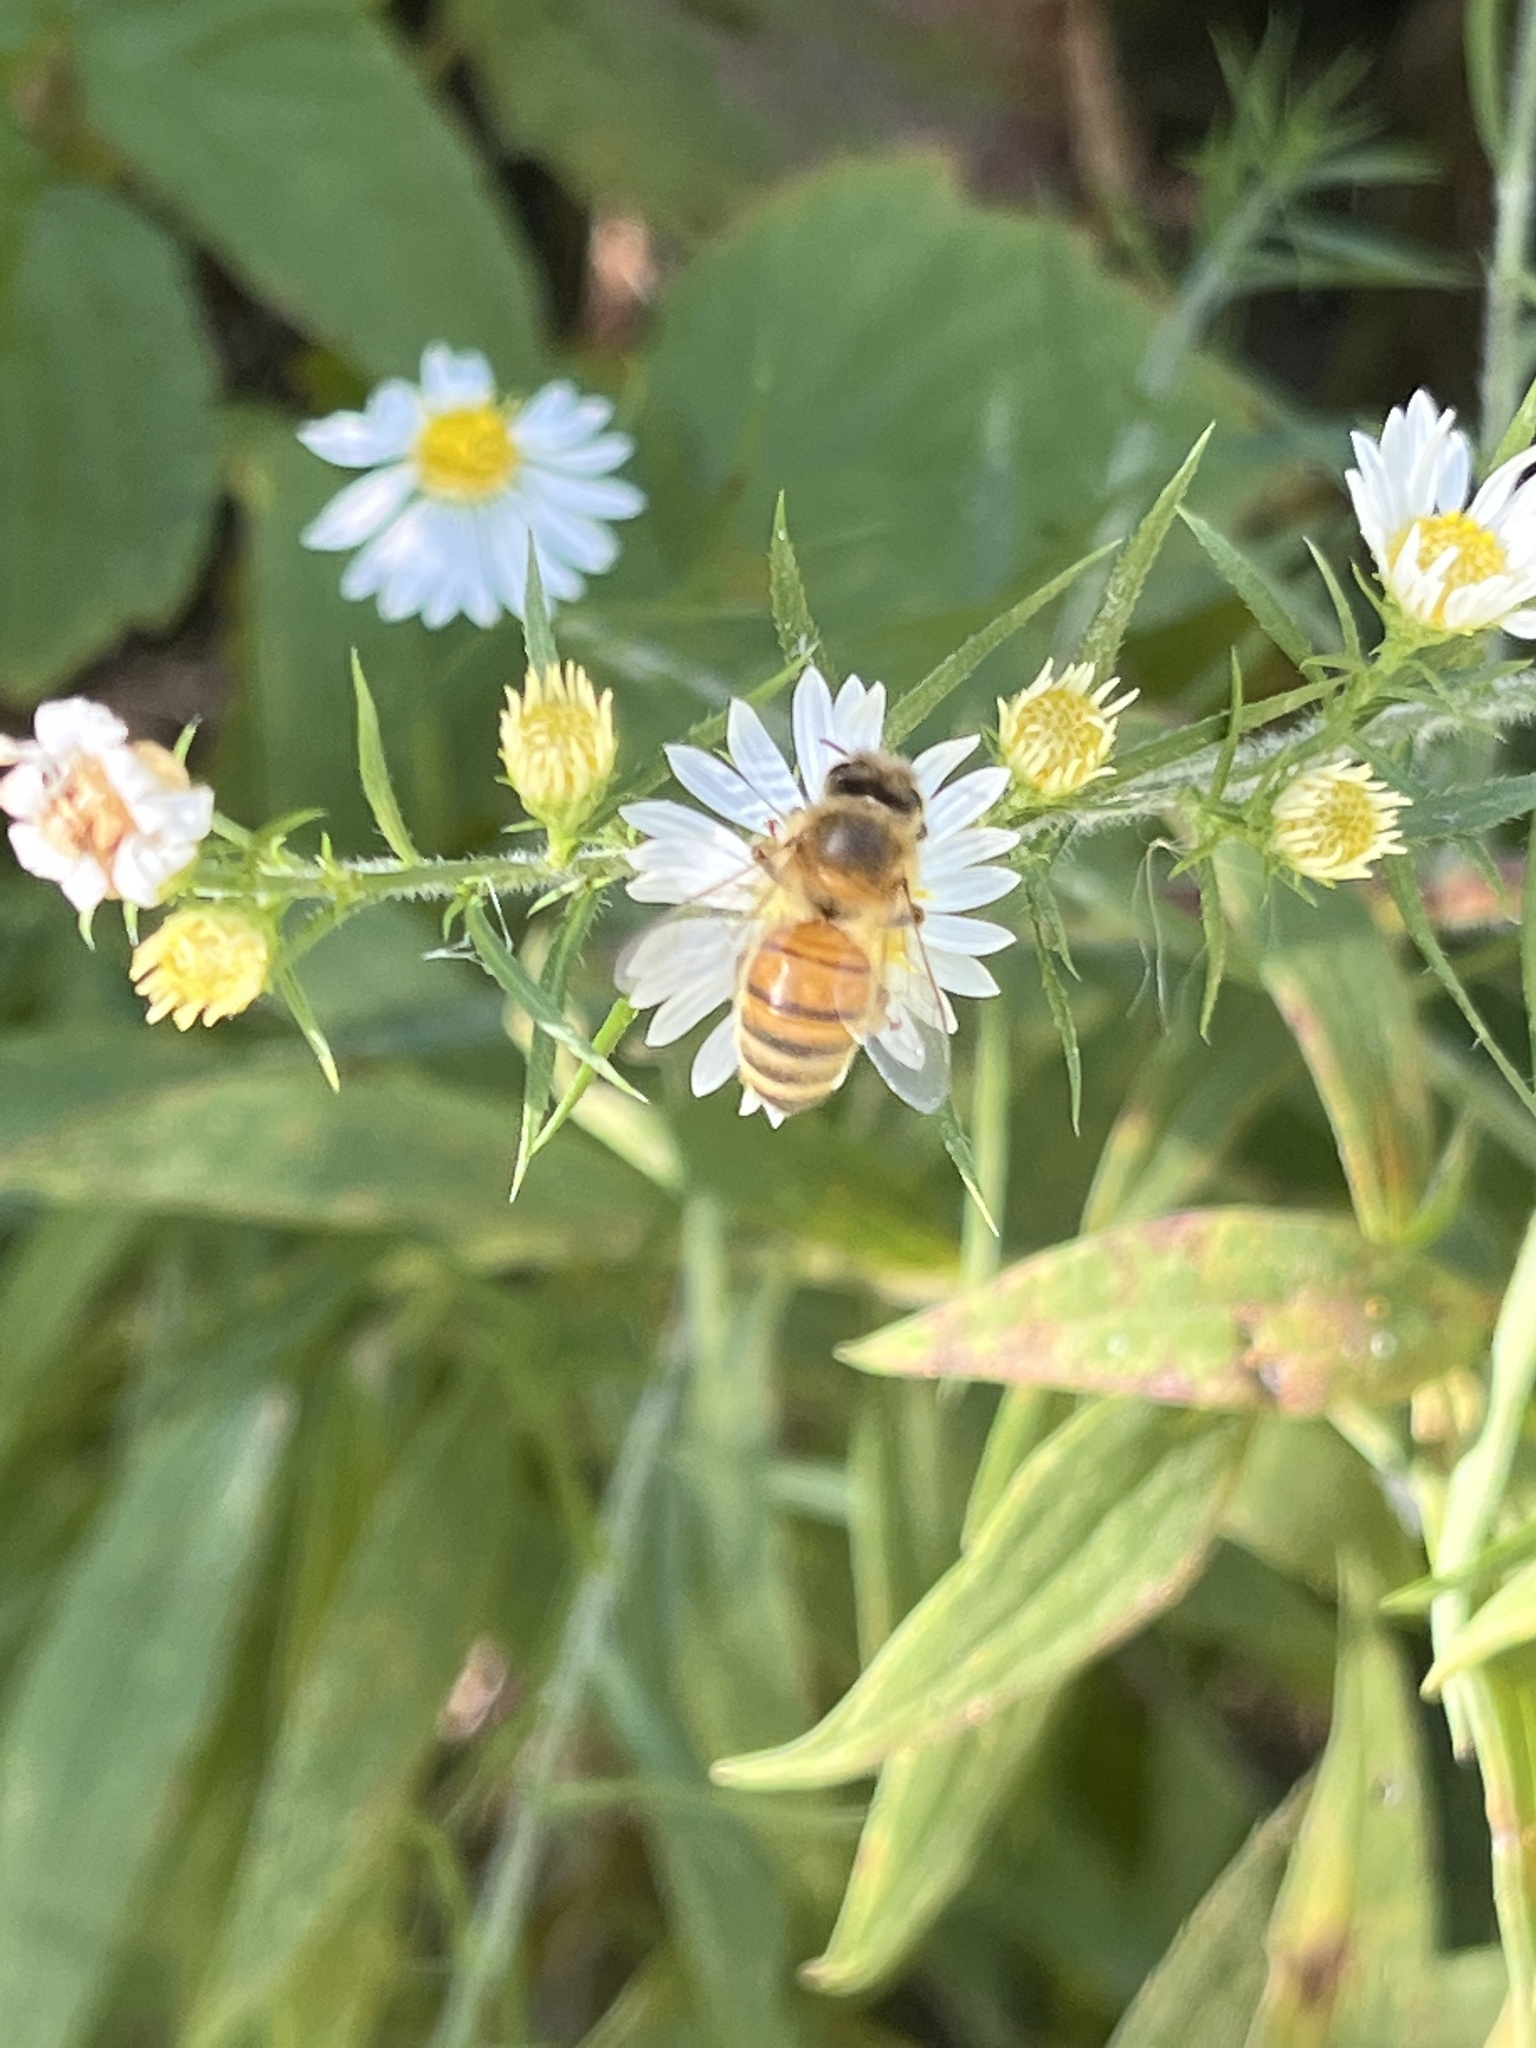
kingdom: Animalia
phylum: Arthropoda
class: Insecta
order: Hymenoptera
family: Apidae
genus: Apis
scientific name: Apis mellifera
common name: Honey bee
